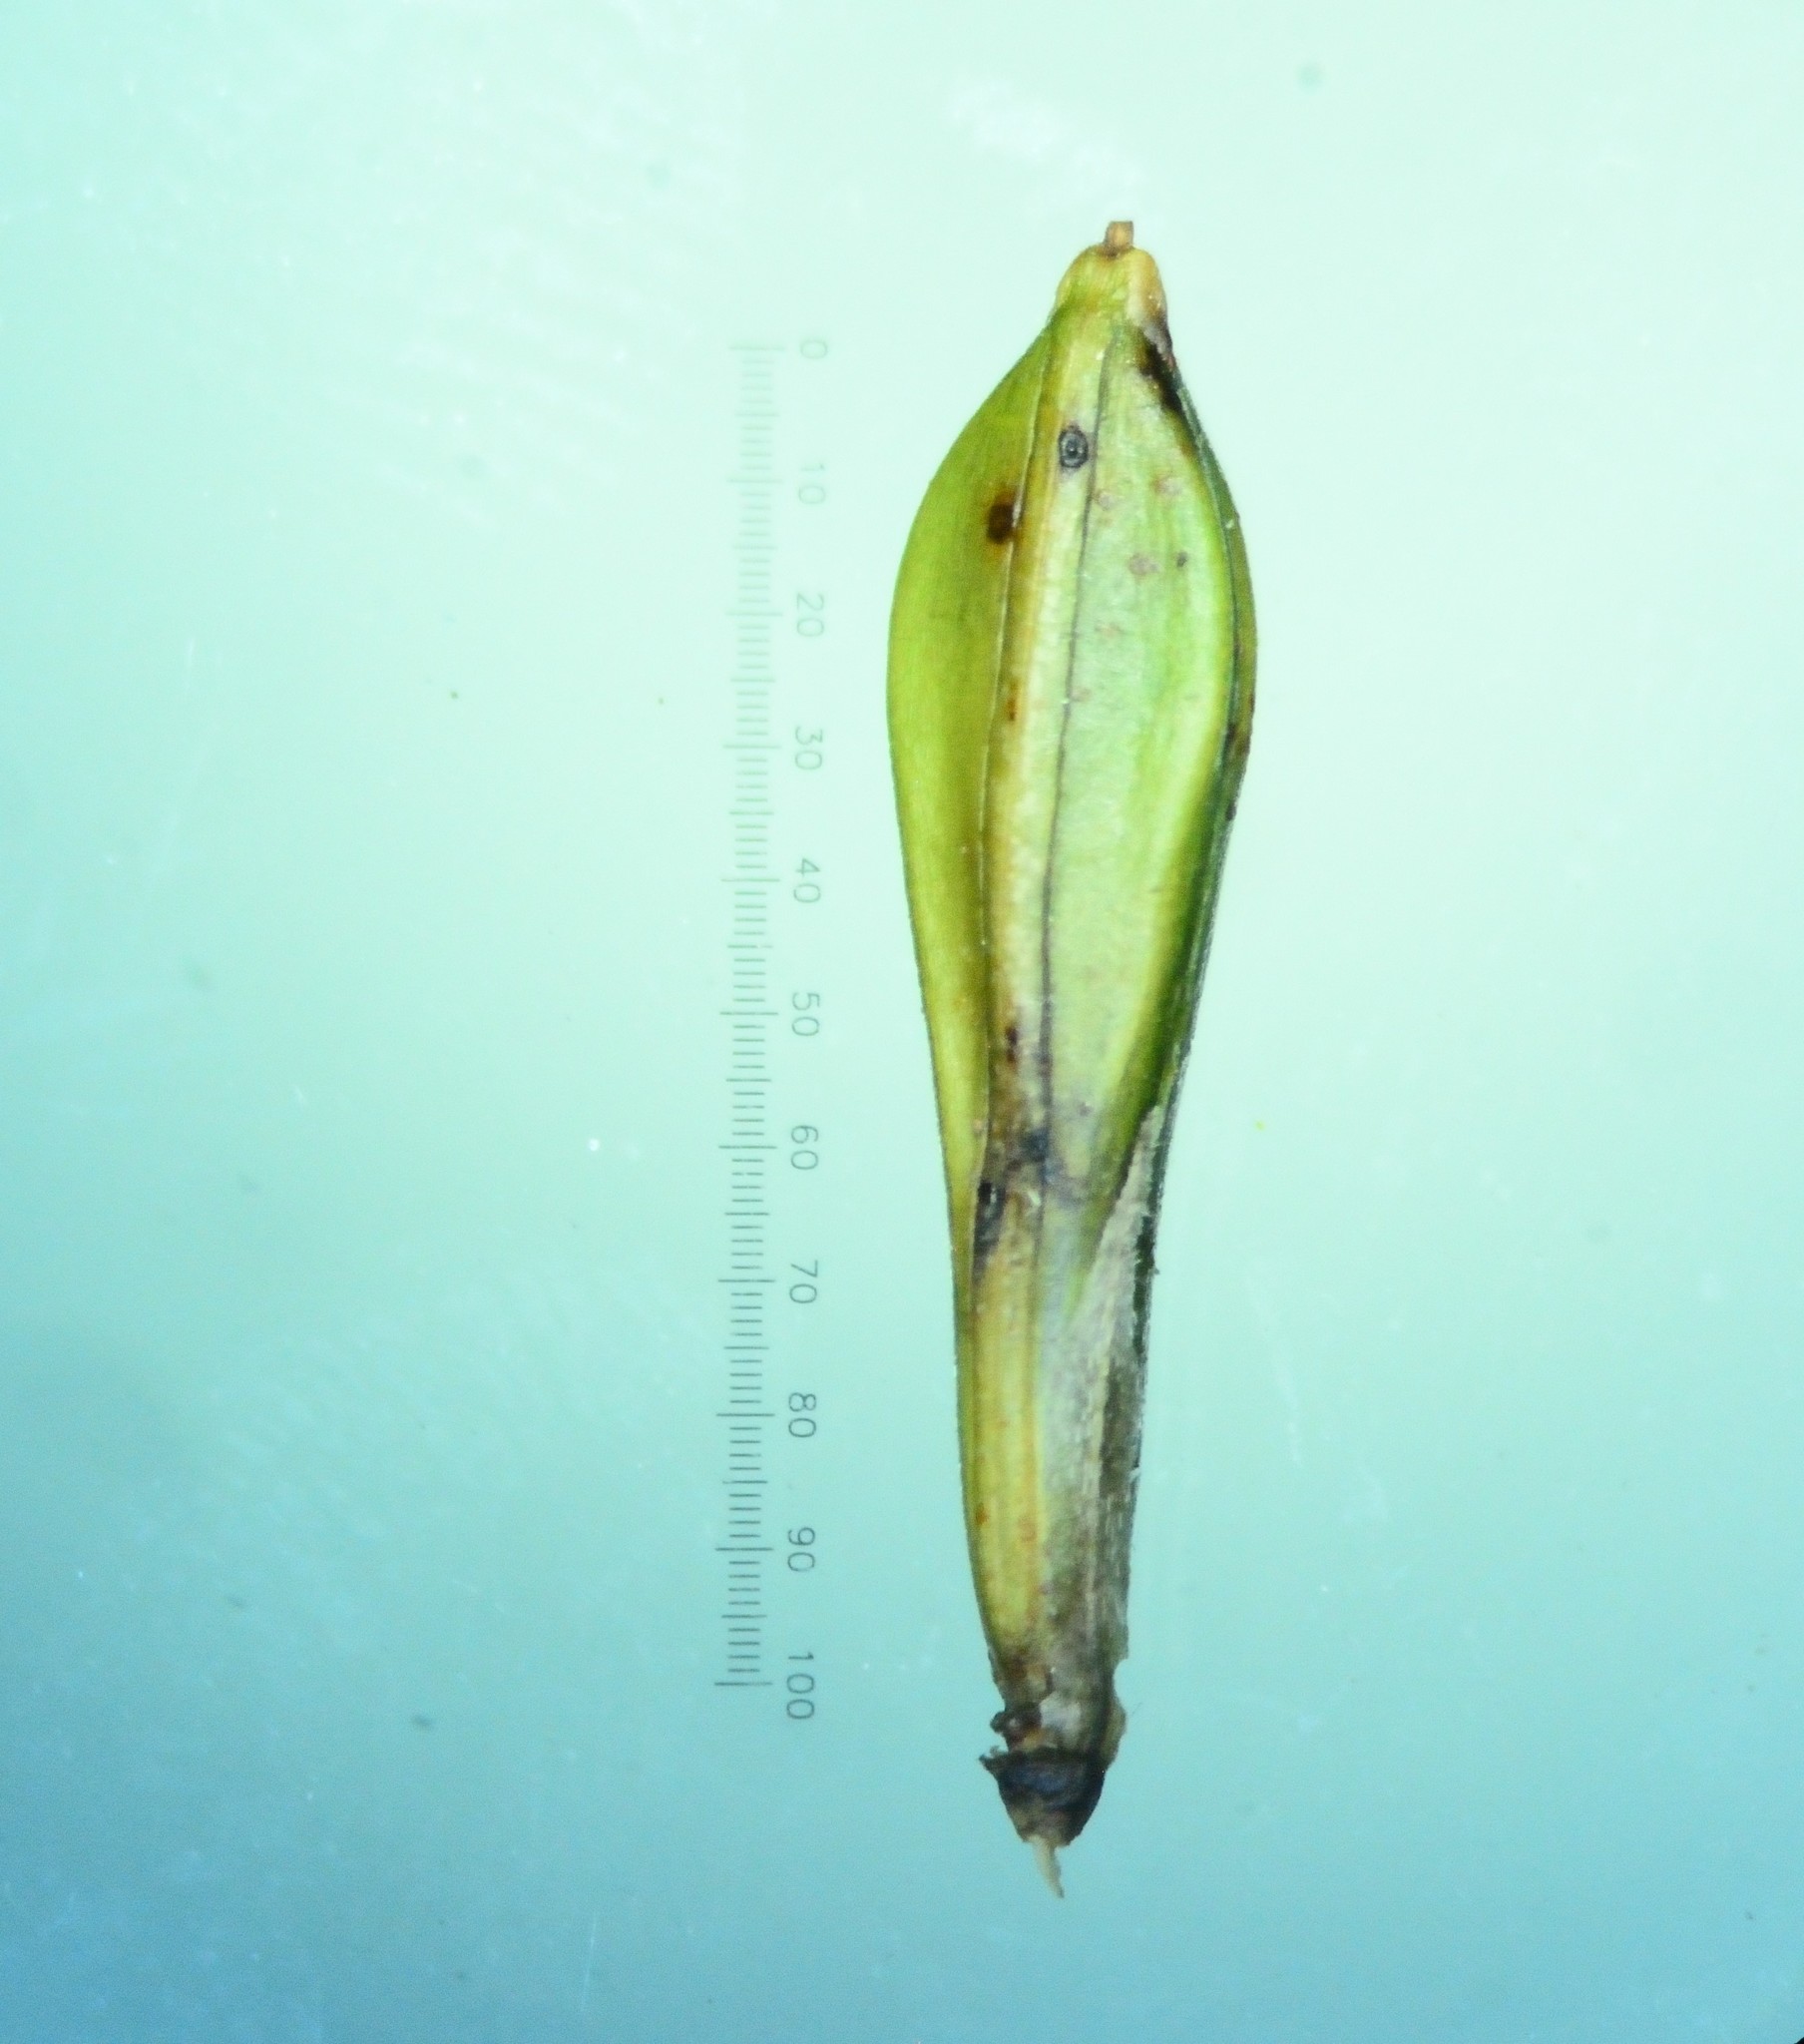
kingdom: Plantae
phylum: Tracheophyta
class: Magnoliopsida
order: Lamiales
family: Acanthaceae
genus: Eranthemum
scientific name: Eranthemum roseum
